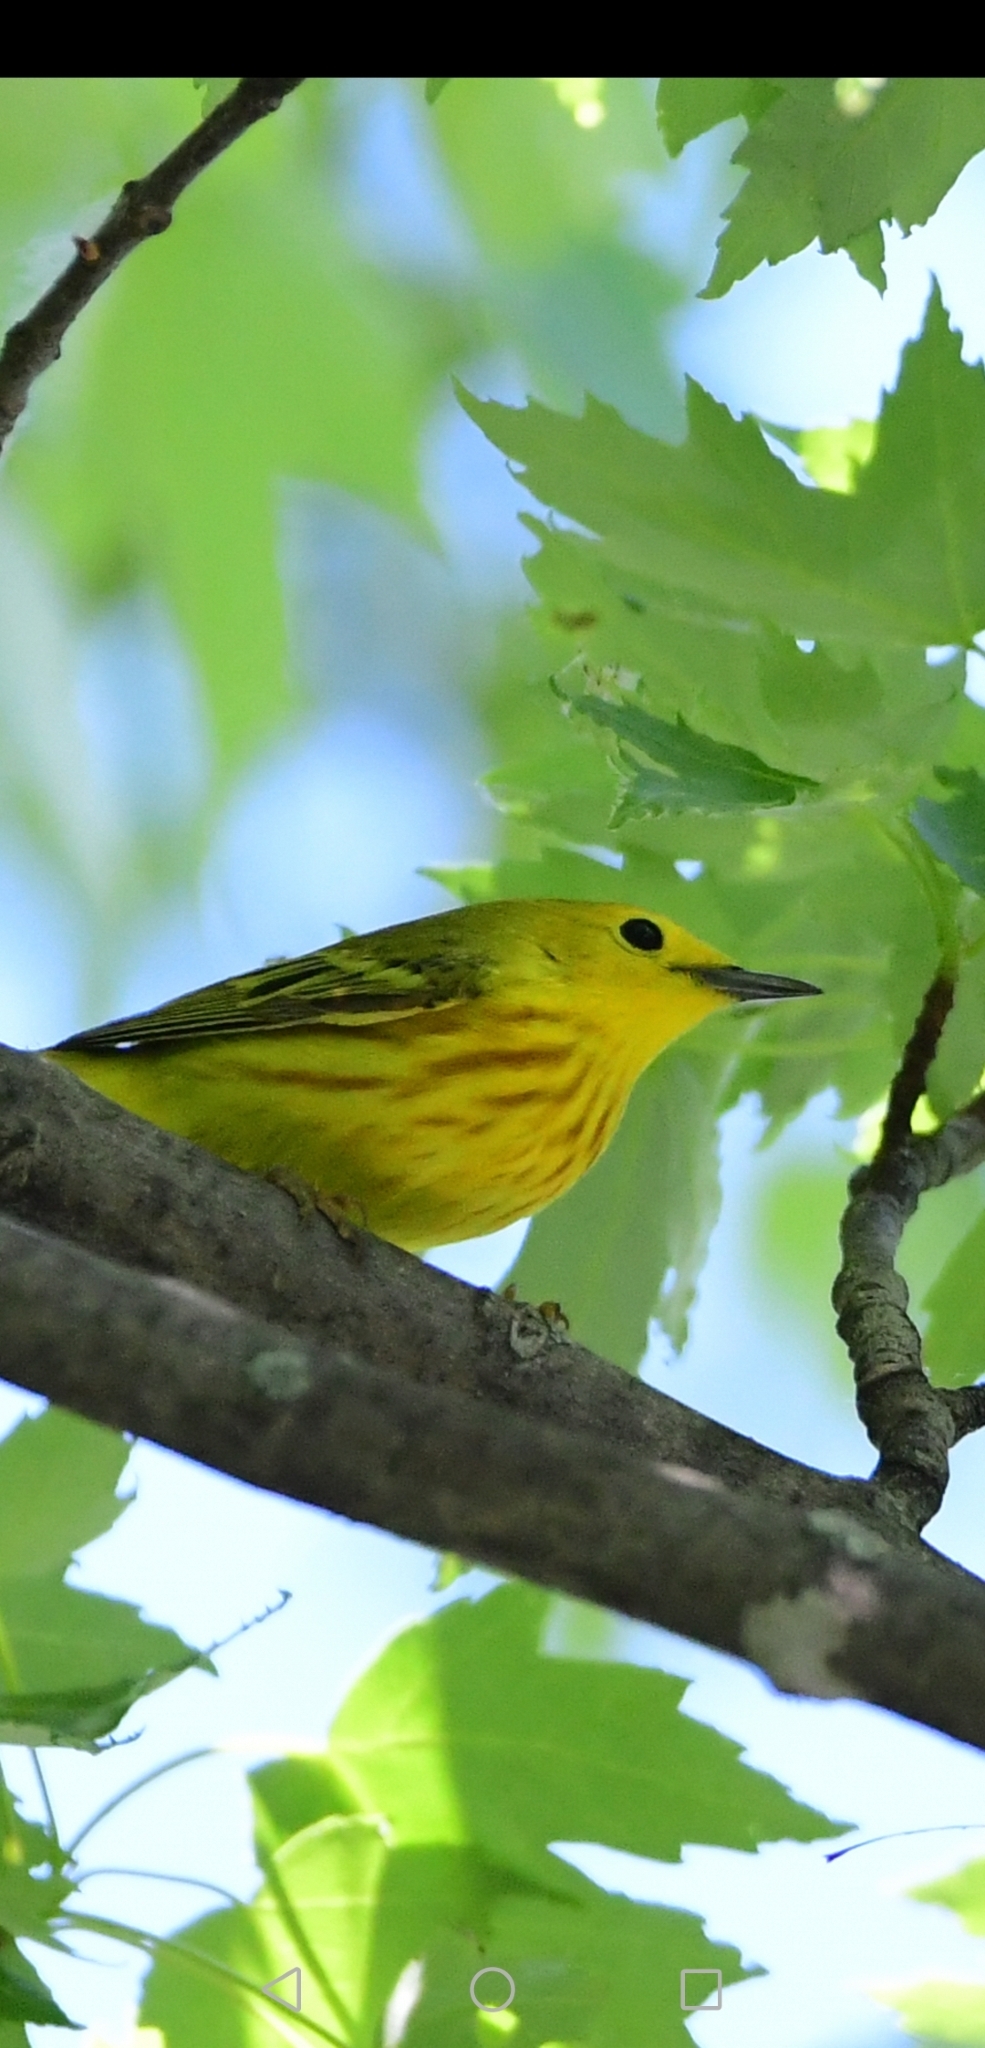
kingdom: Animalia
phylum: Chordata
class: Aves
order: Passeriformes
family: Parulidae
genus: Setophaga
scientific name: Setophaga petechia
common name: Yellow warbler
